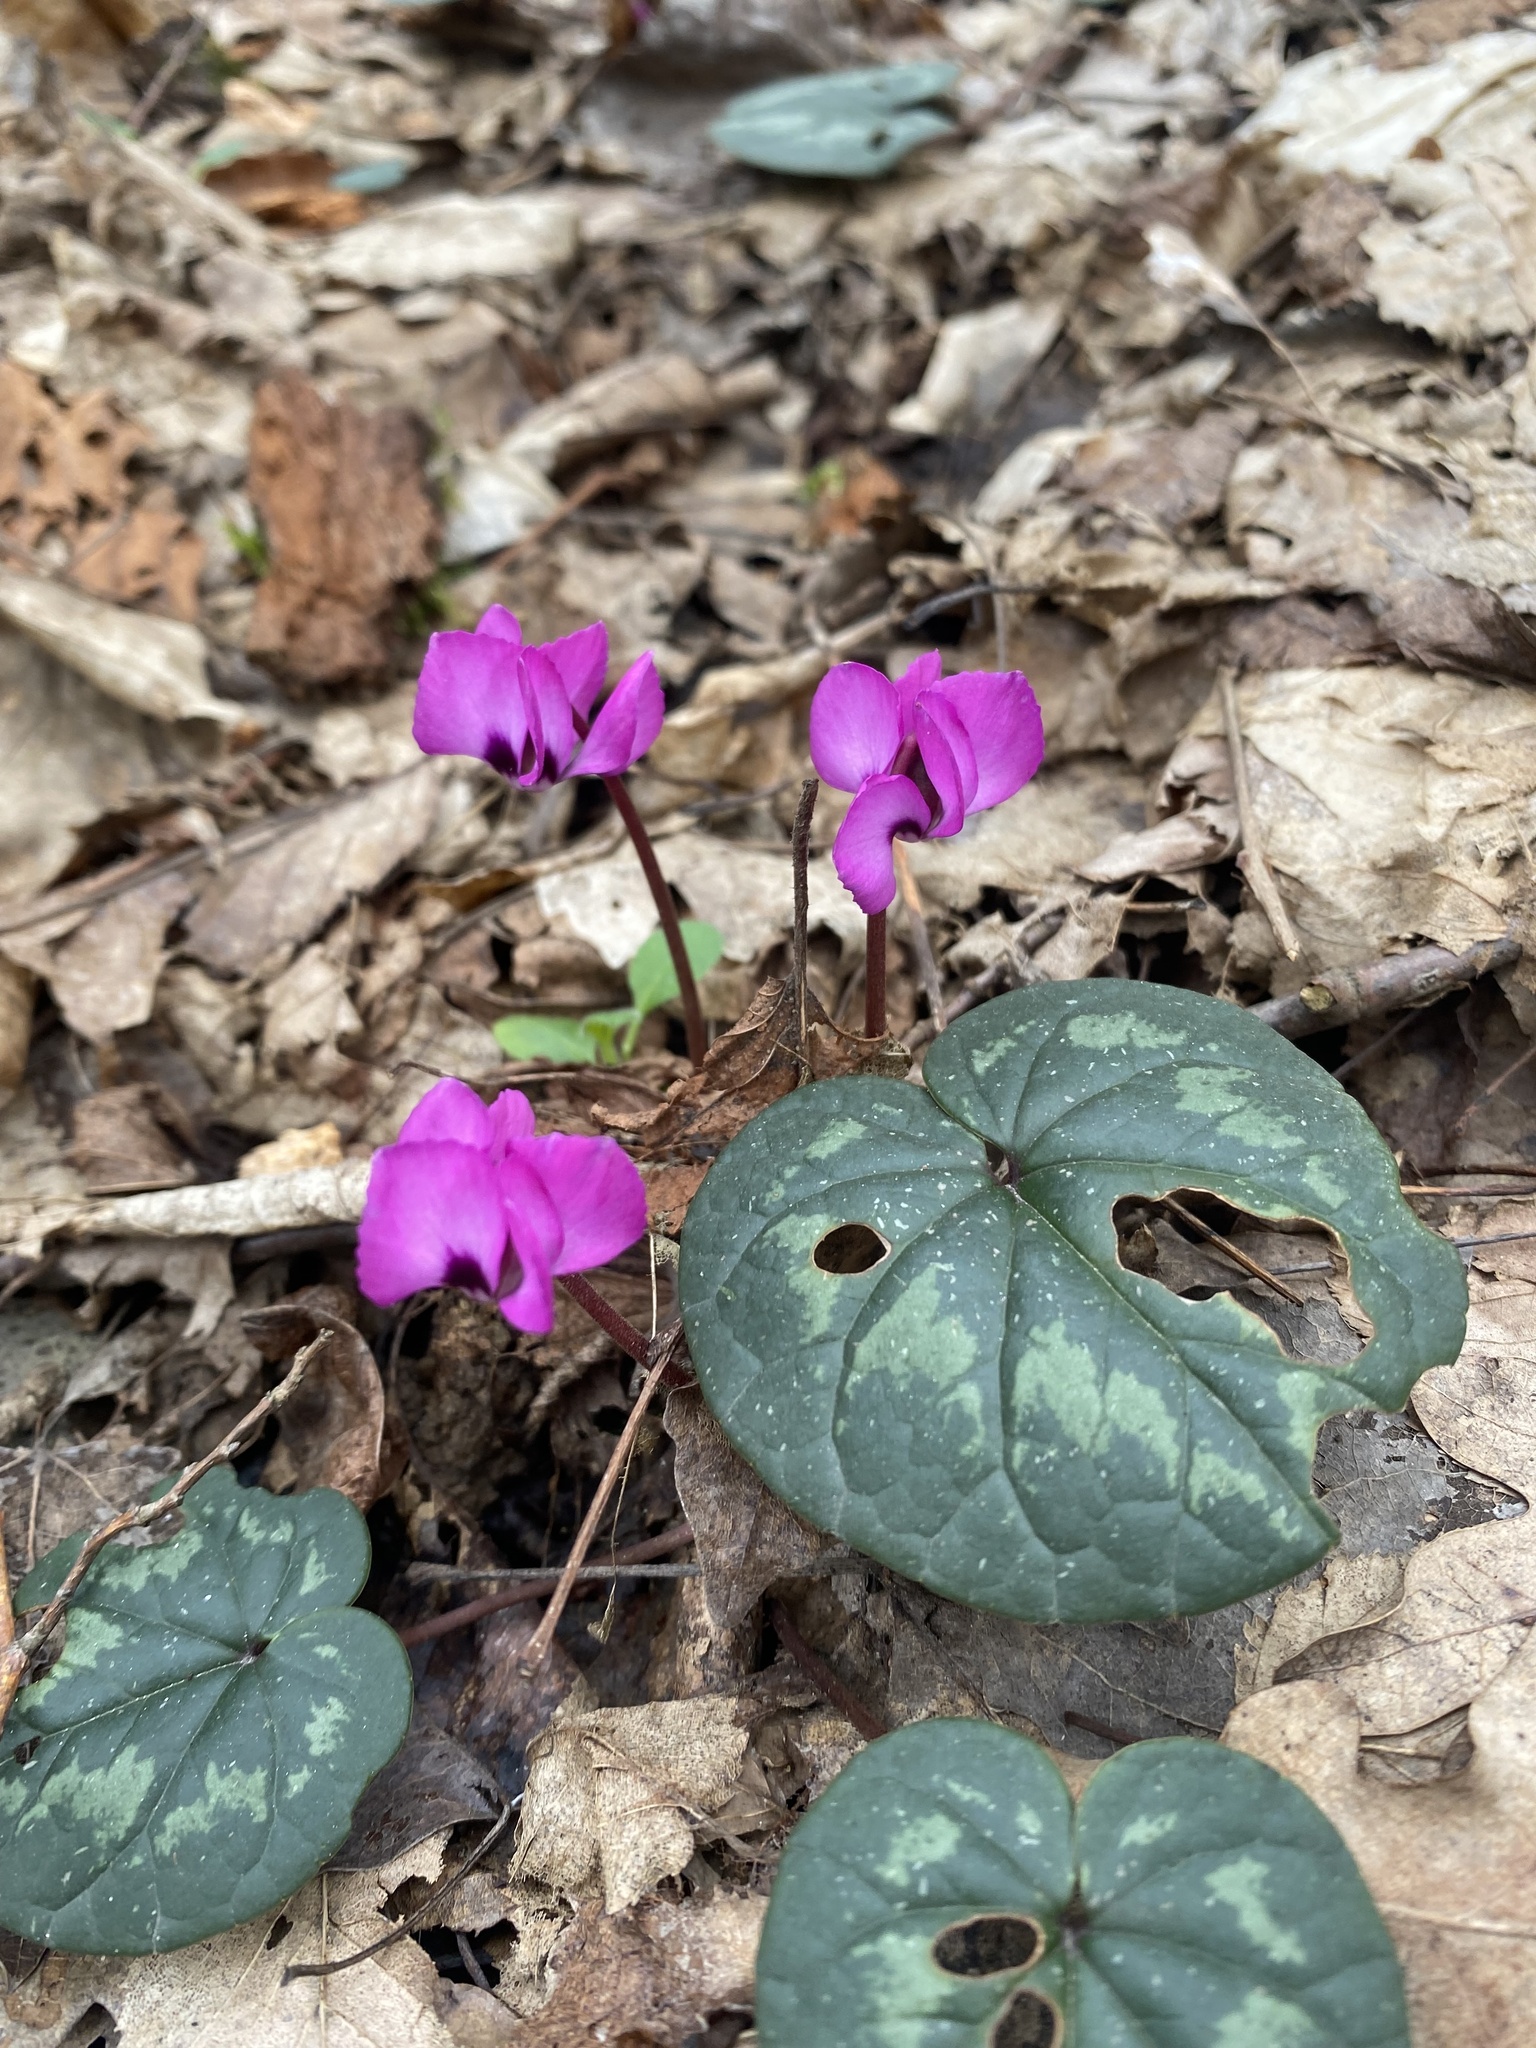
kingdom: Plantae
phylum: Tracheophyta
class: Magnoliopsida
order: Ericales
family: Primulaceae
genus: Cyclamen
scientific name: Cyclamen coum
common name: Eastern sowbread
